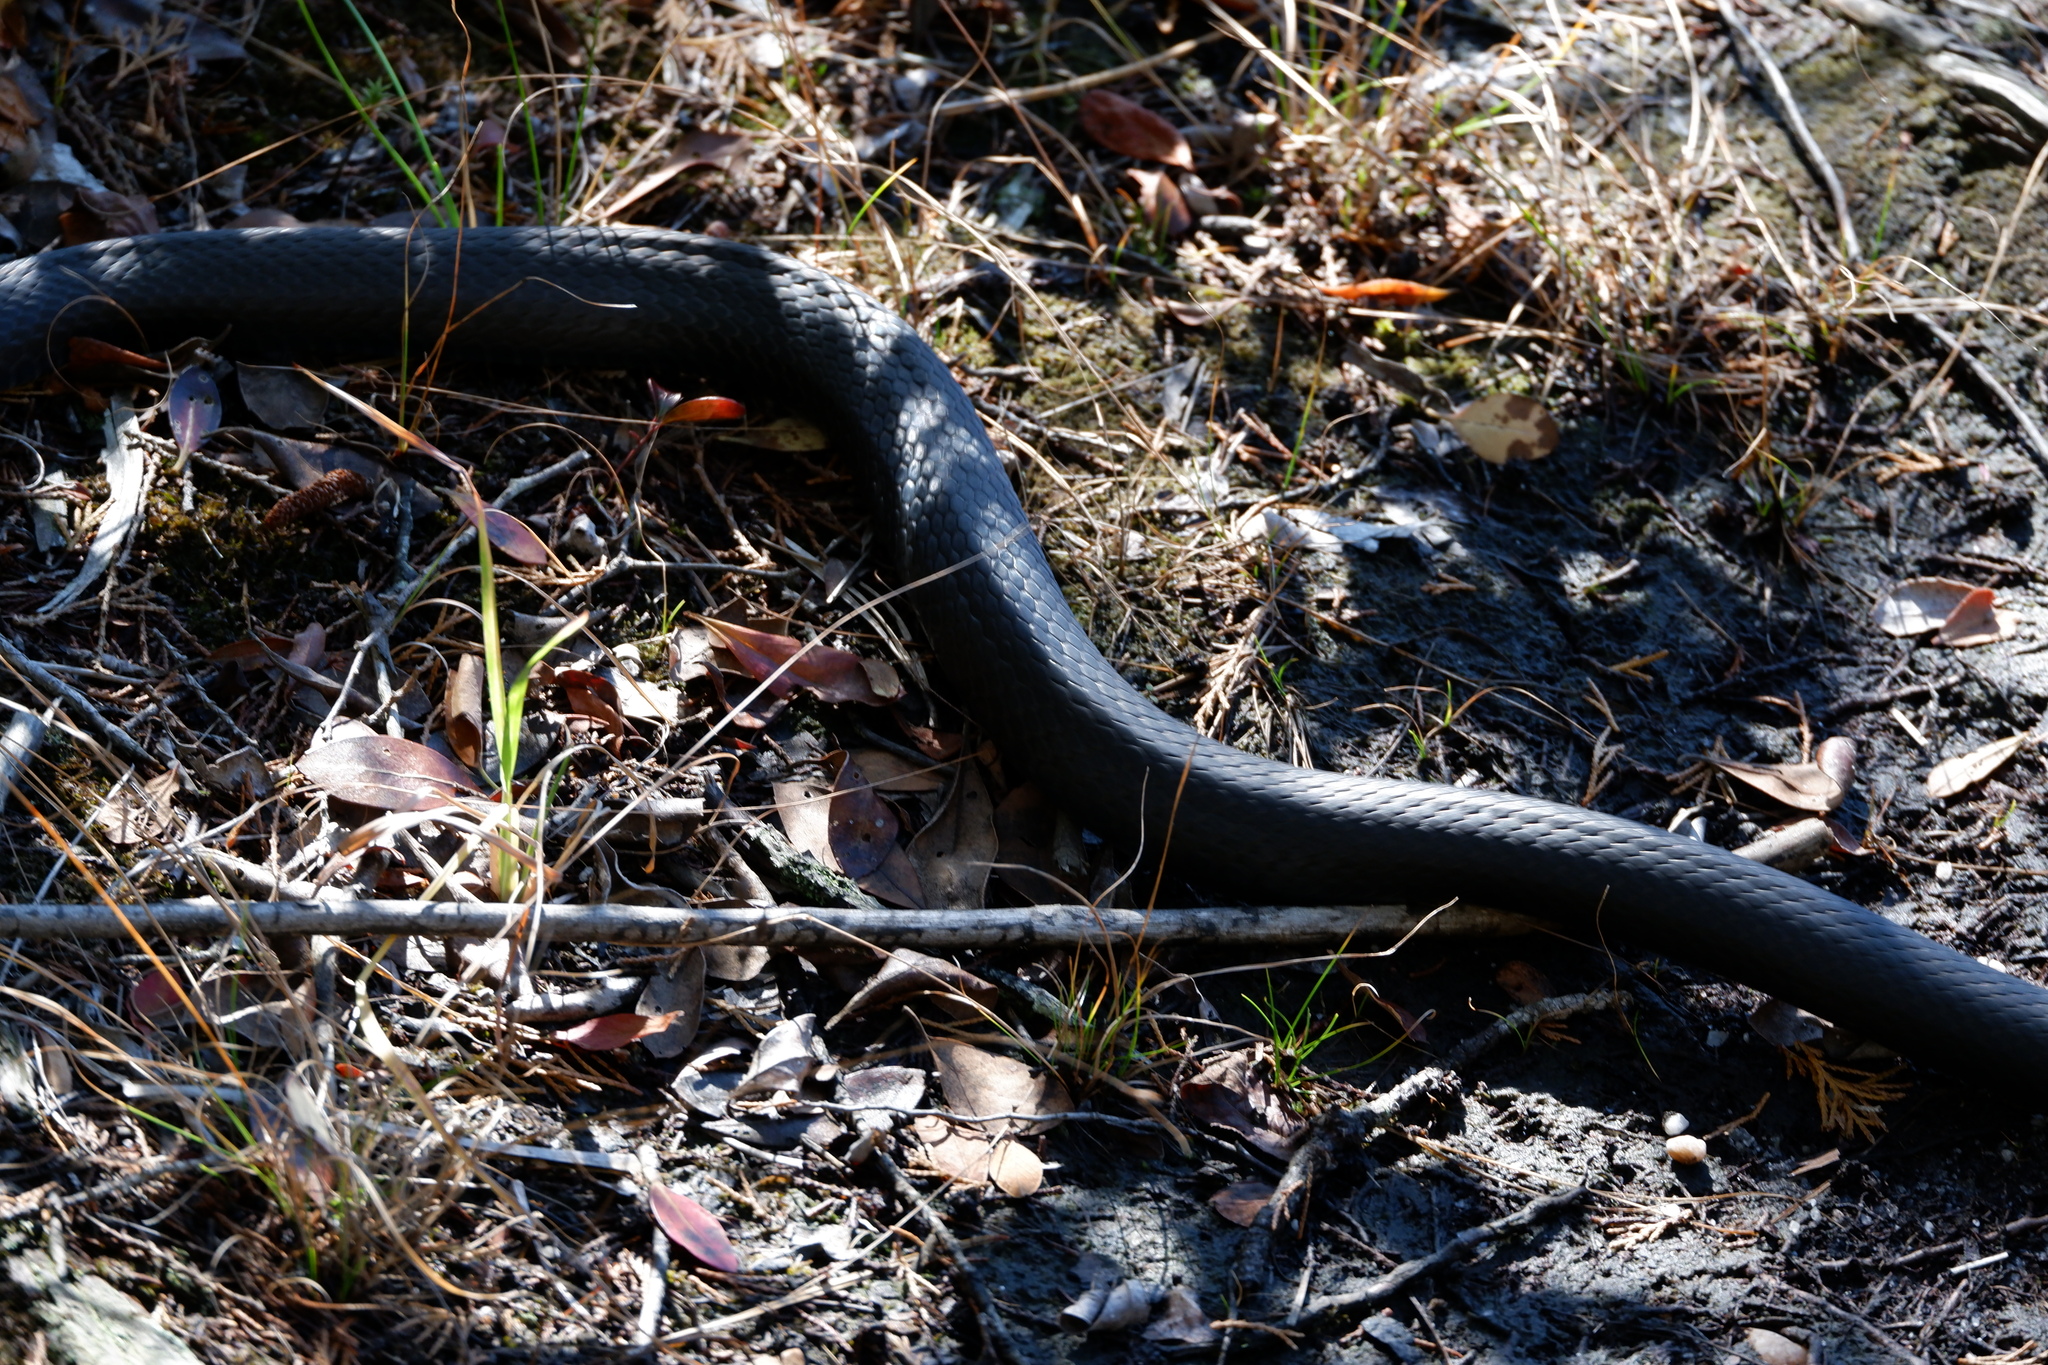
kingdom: Animalia
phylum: Chordata
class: Squamata
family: Colubridae
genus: Coluber
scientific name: Coluber constrictor
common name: Eastern racer
